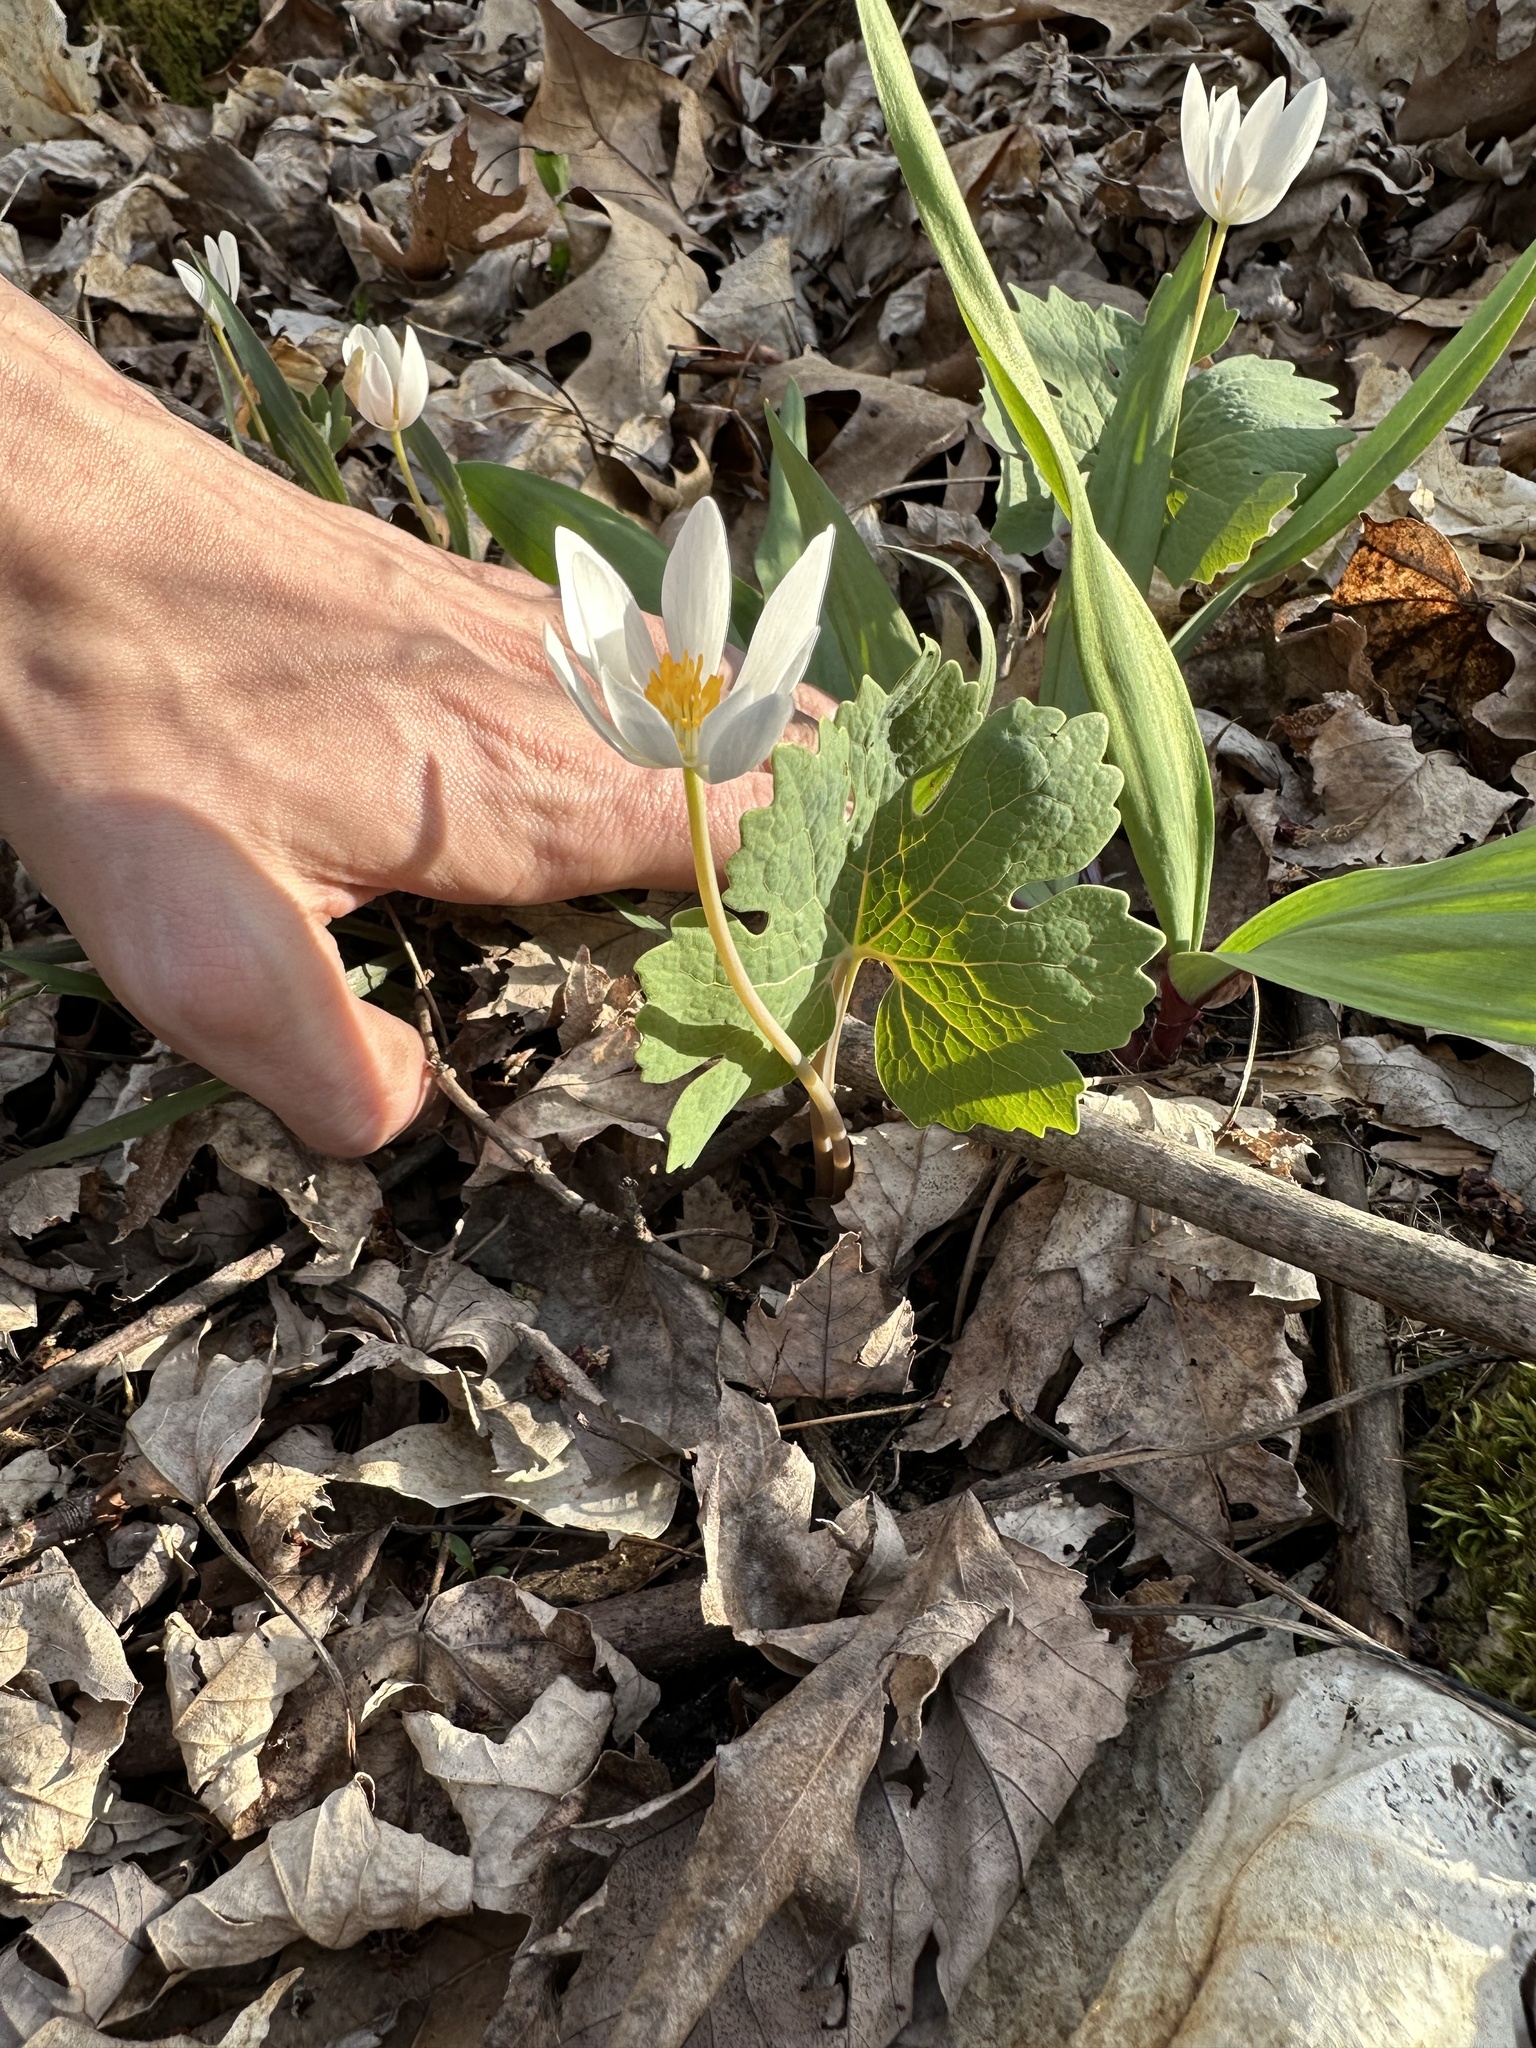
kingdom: Plantae
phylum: Tracheophyta
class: Magnoliopsida
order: Ranunculales
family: Papaveraceae
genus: Sanguinaria
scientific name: Sanguinaria canadensis
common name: Bloodroot
